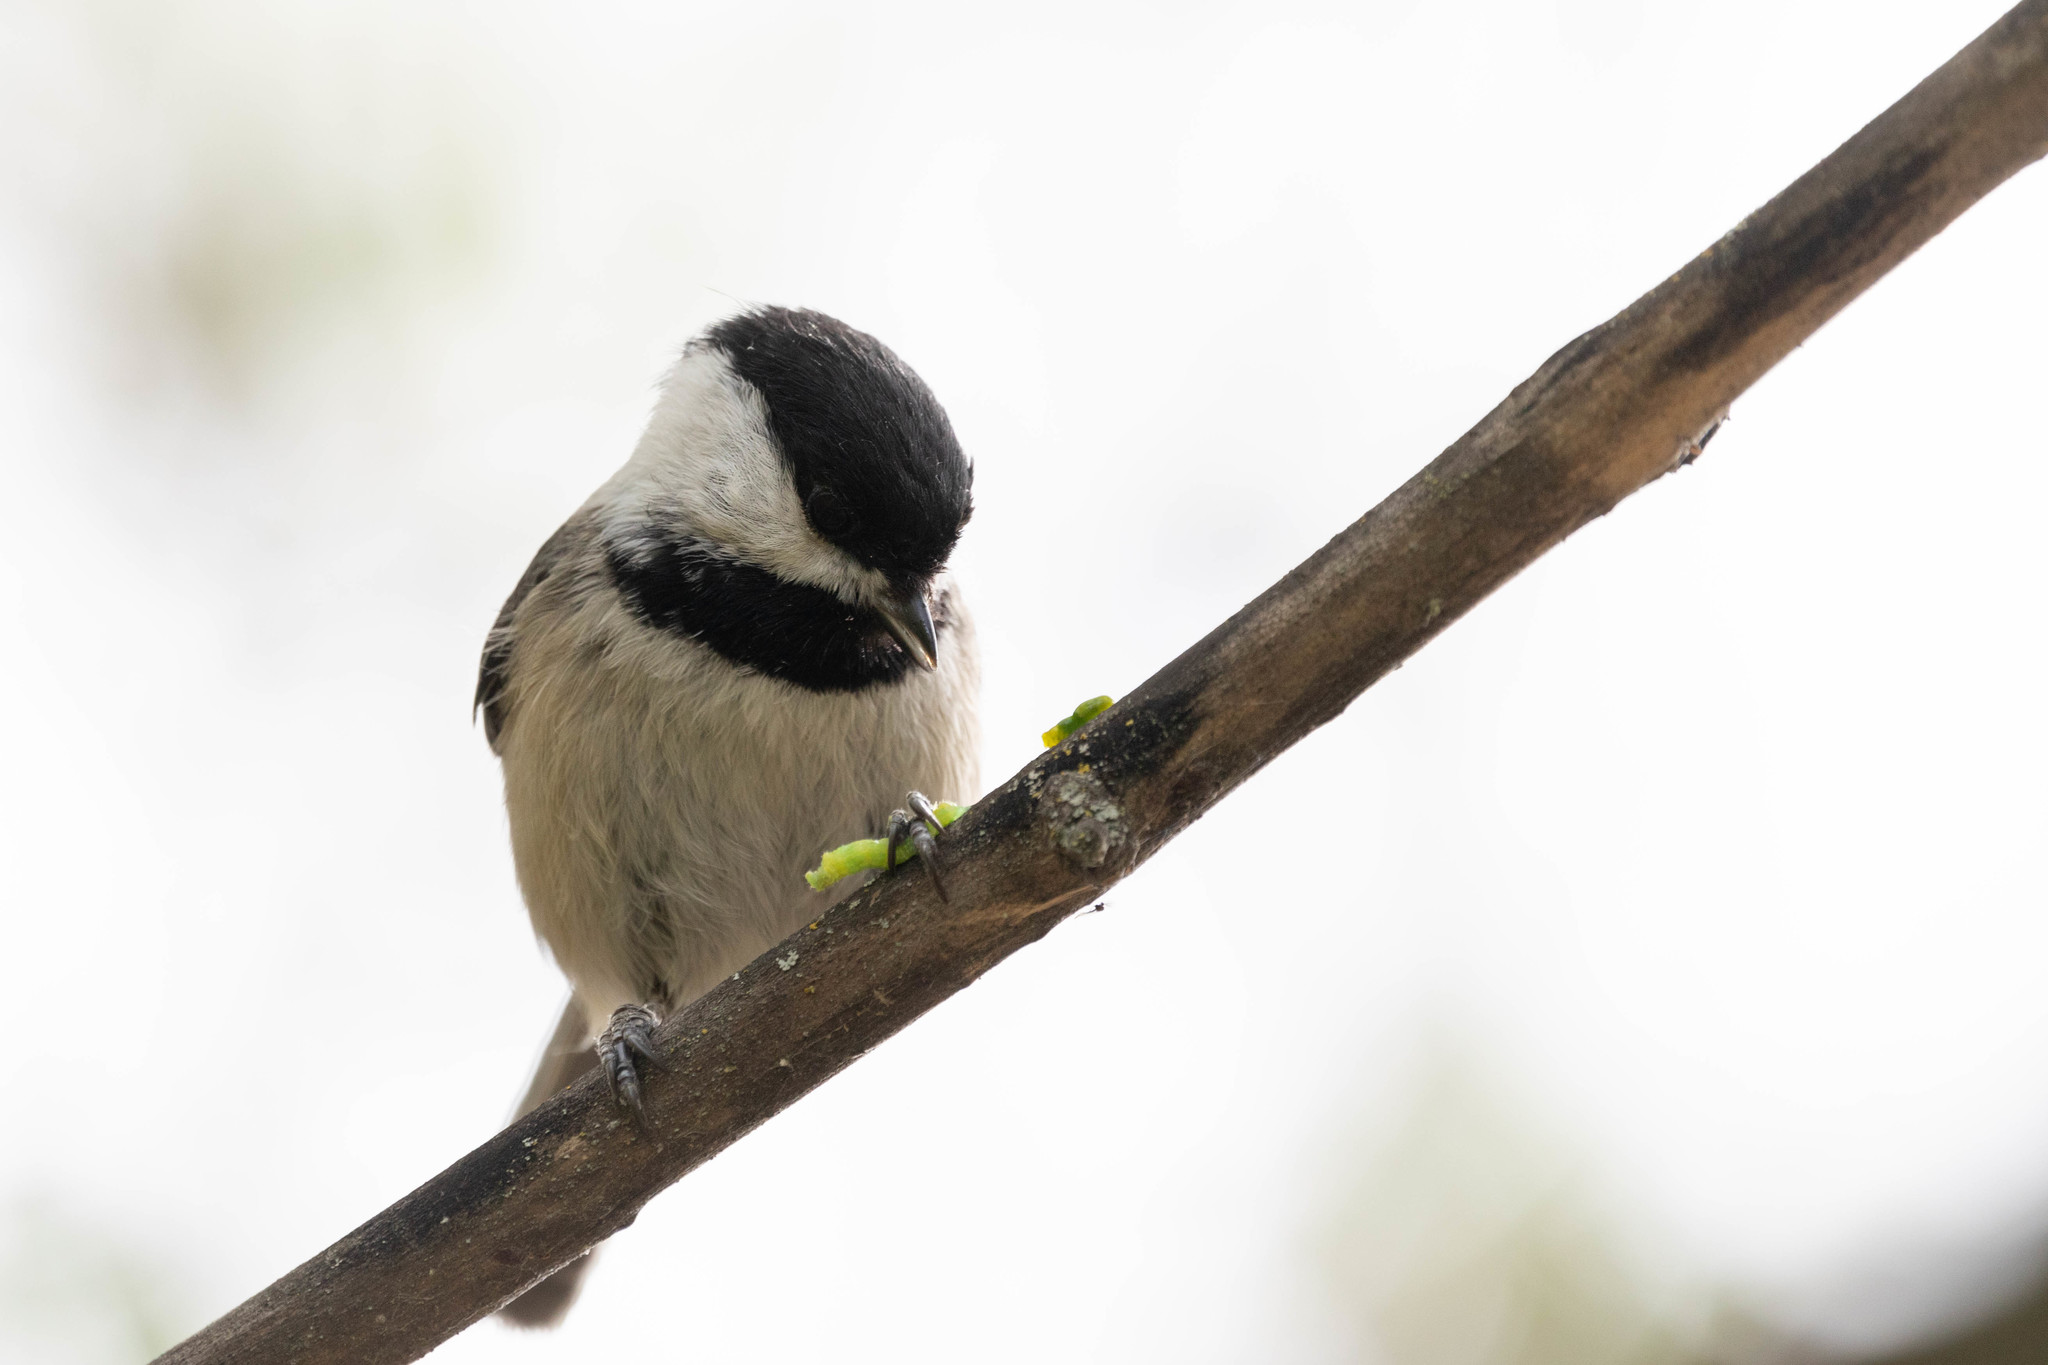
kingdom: Animalia
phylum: Chordata
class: Aves
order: Passeriformes
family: Paridae
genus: Poecile
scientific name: Poecile atricapillus
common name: Black-capped chickadee
